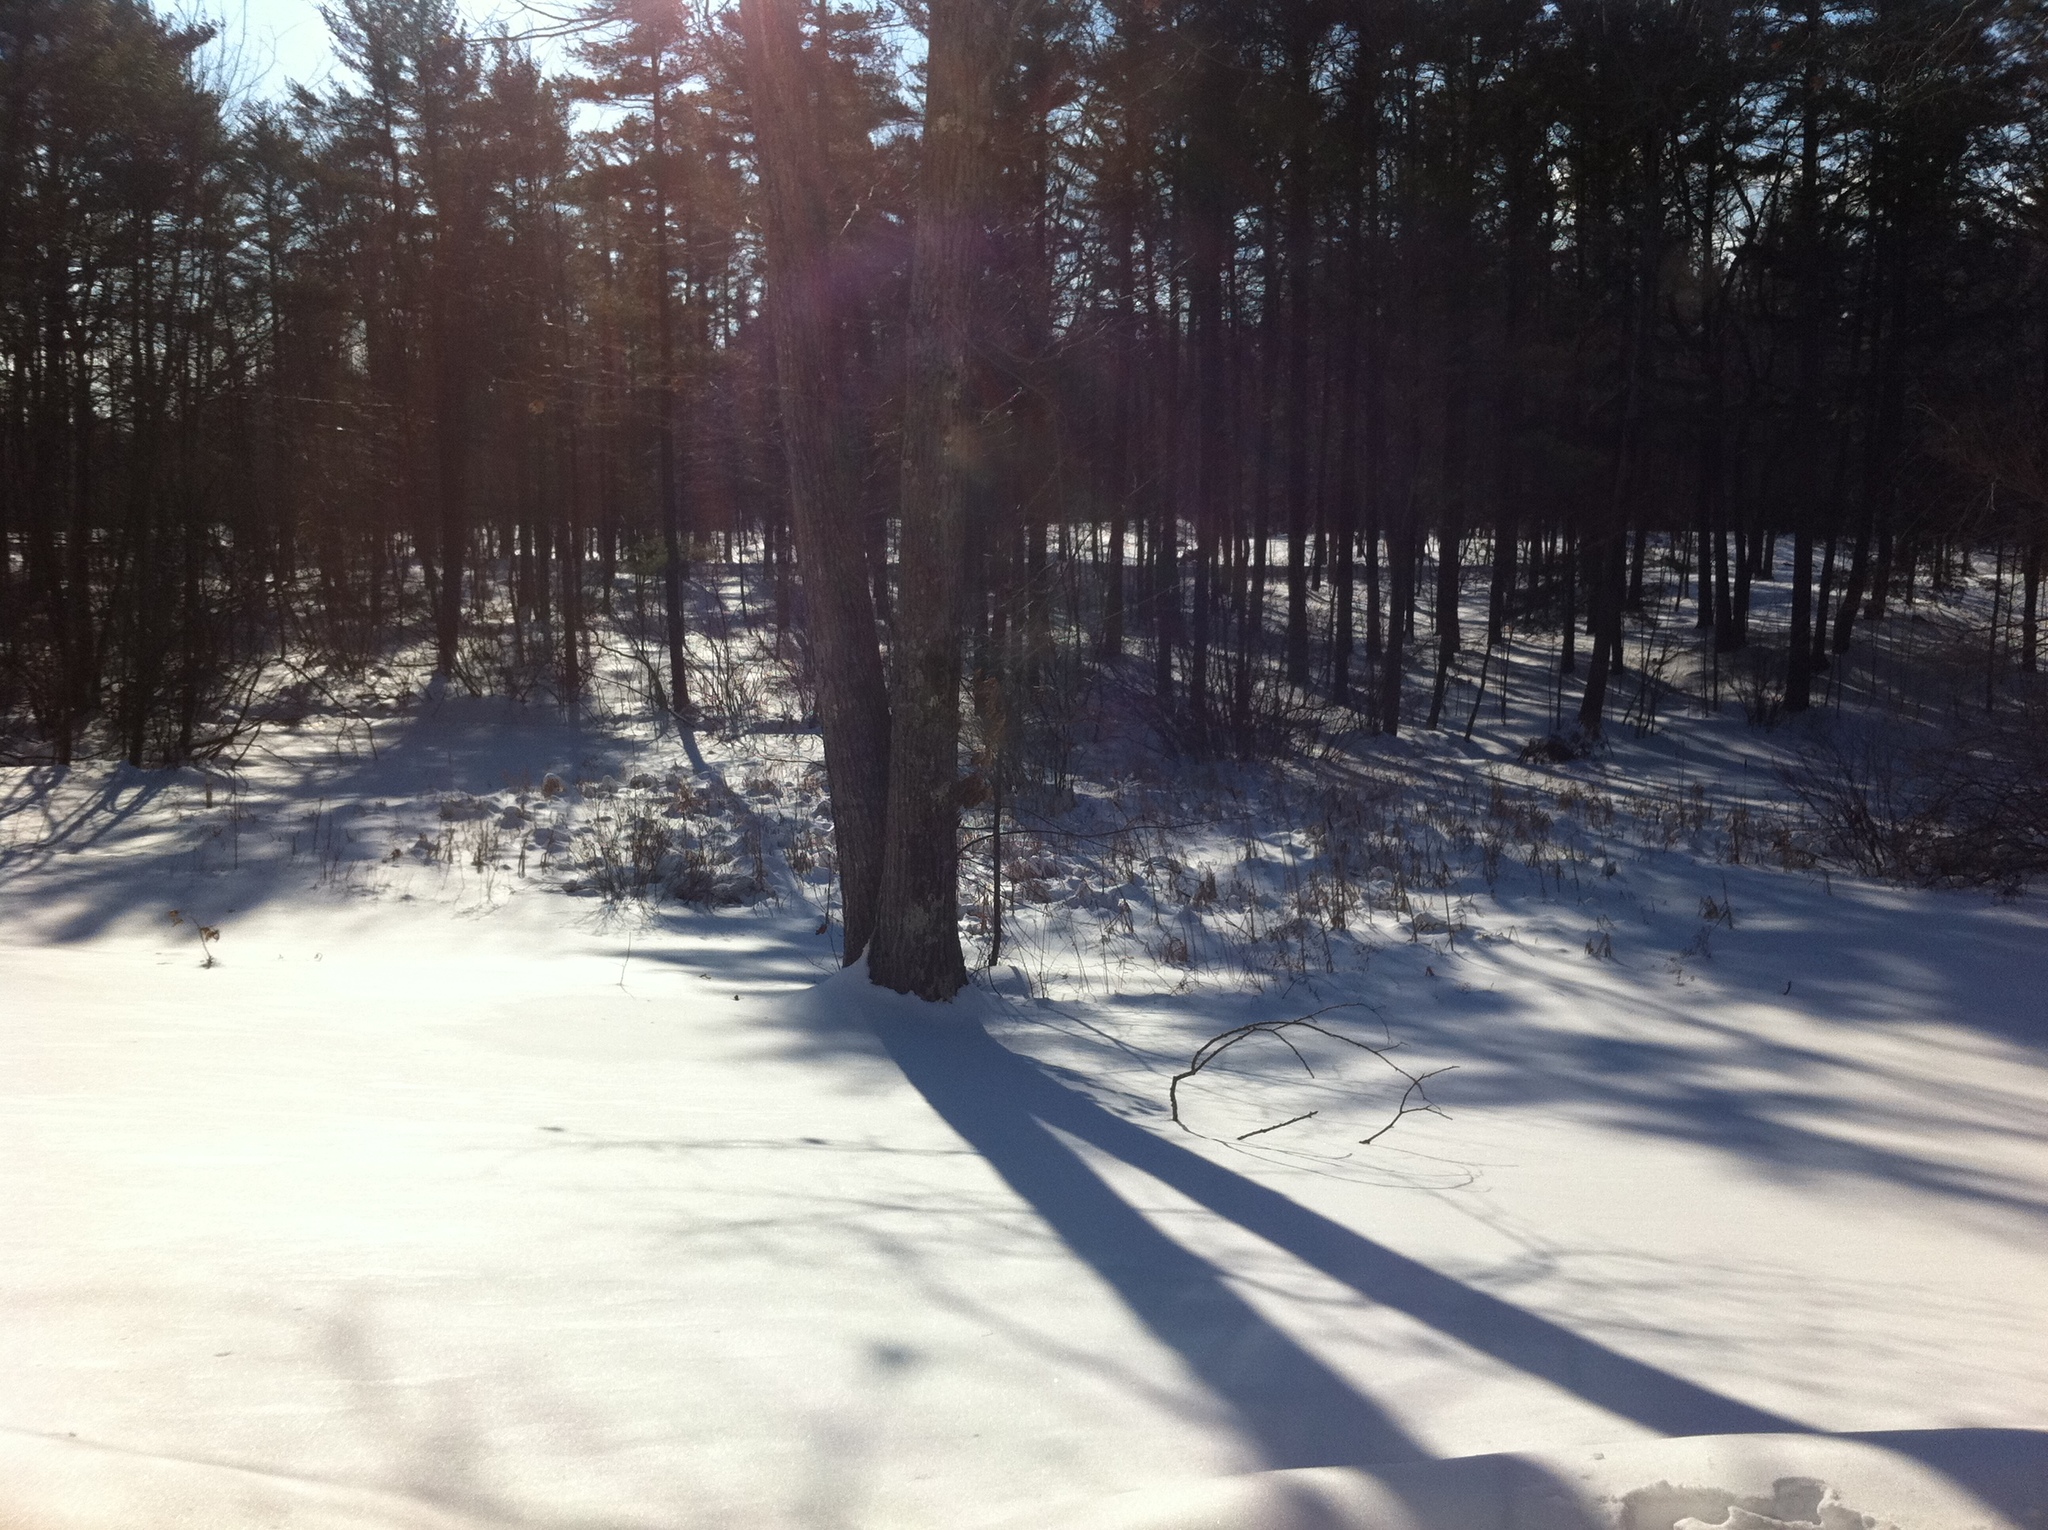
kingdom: Plantae
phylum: Tracheophyta
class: Pinopsida
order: Pinales
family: Pinaceae
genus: Pinus
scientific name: Pinus strobus
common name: Weymouth pine
